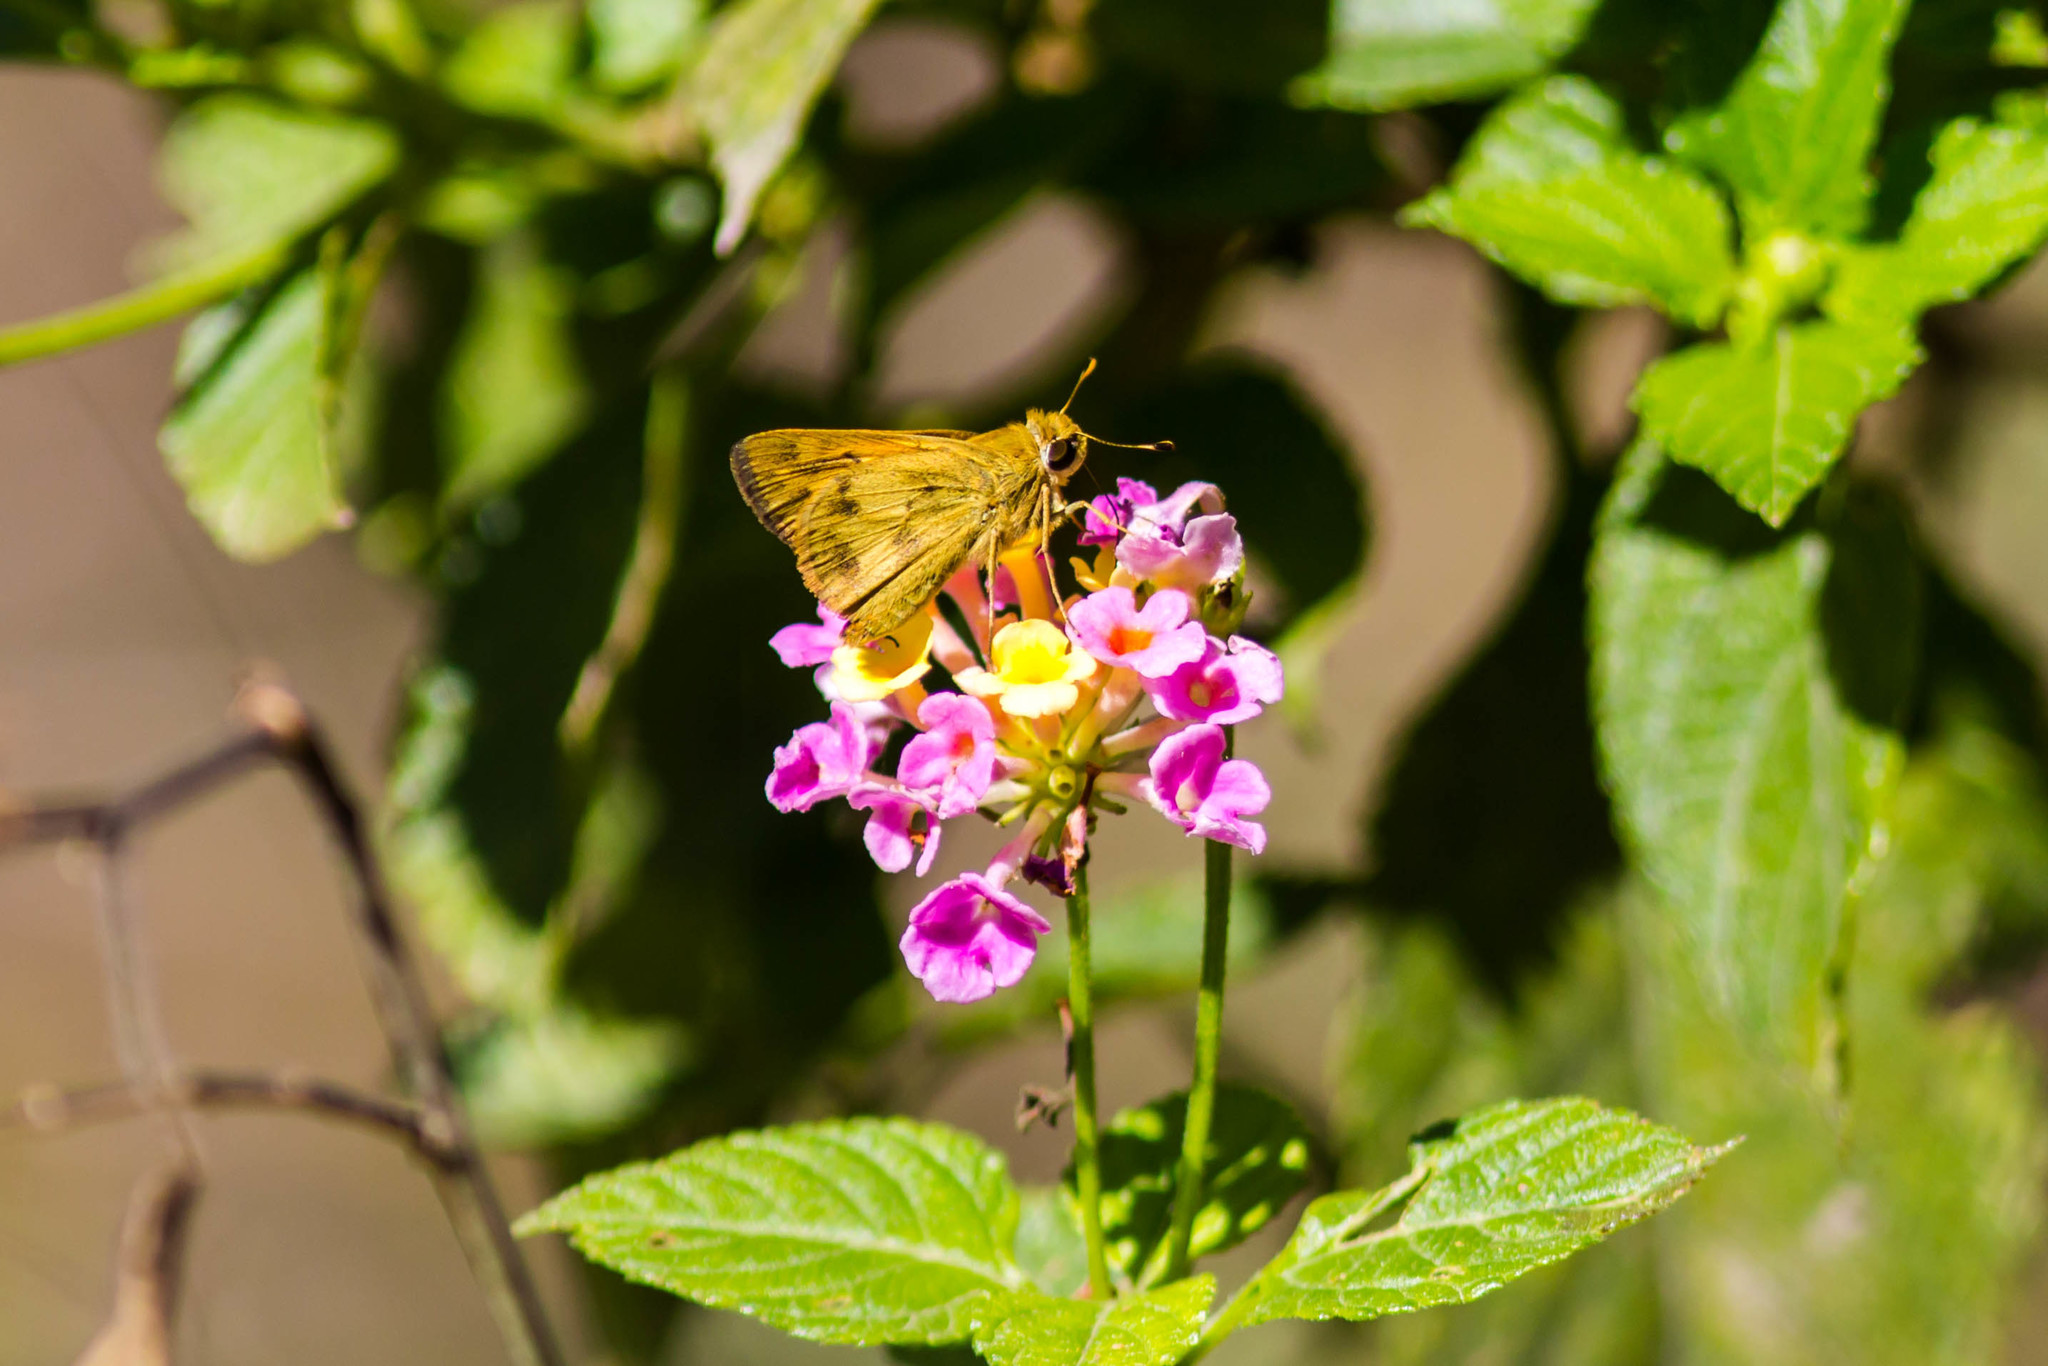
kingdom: Animalia
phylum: Arthropoda
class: Insecta
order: Lepidoptera
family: Hesperiidae
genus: Polites
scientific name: Polites vibex
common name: Whirlabout
